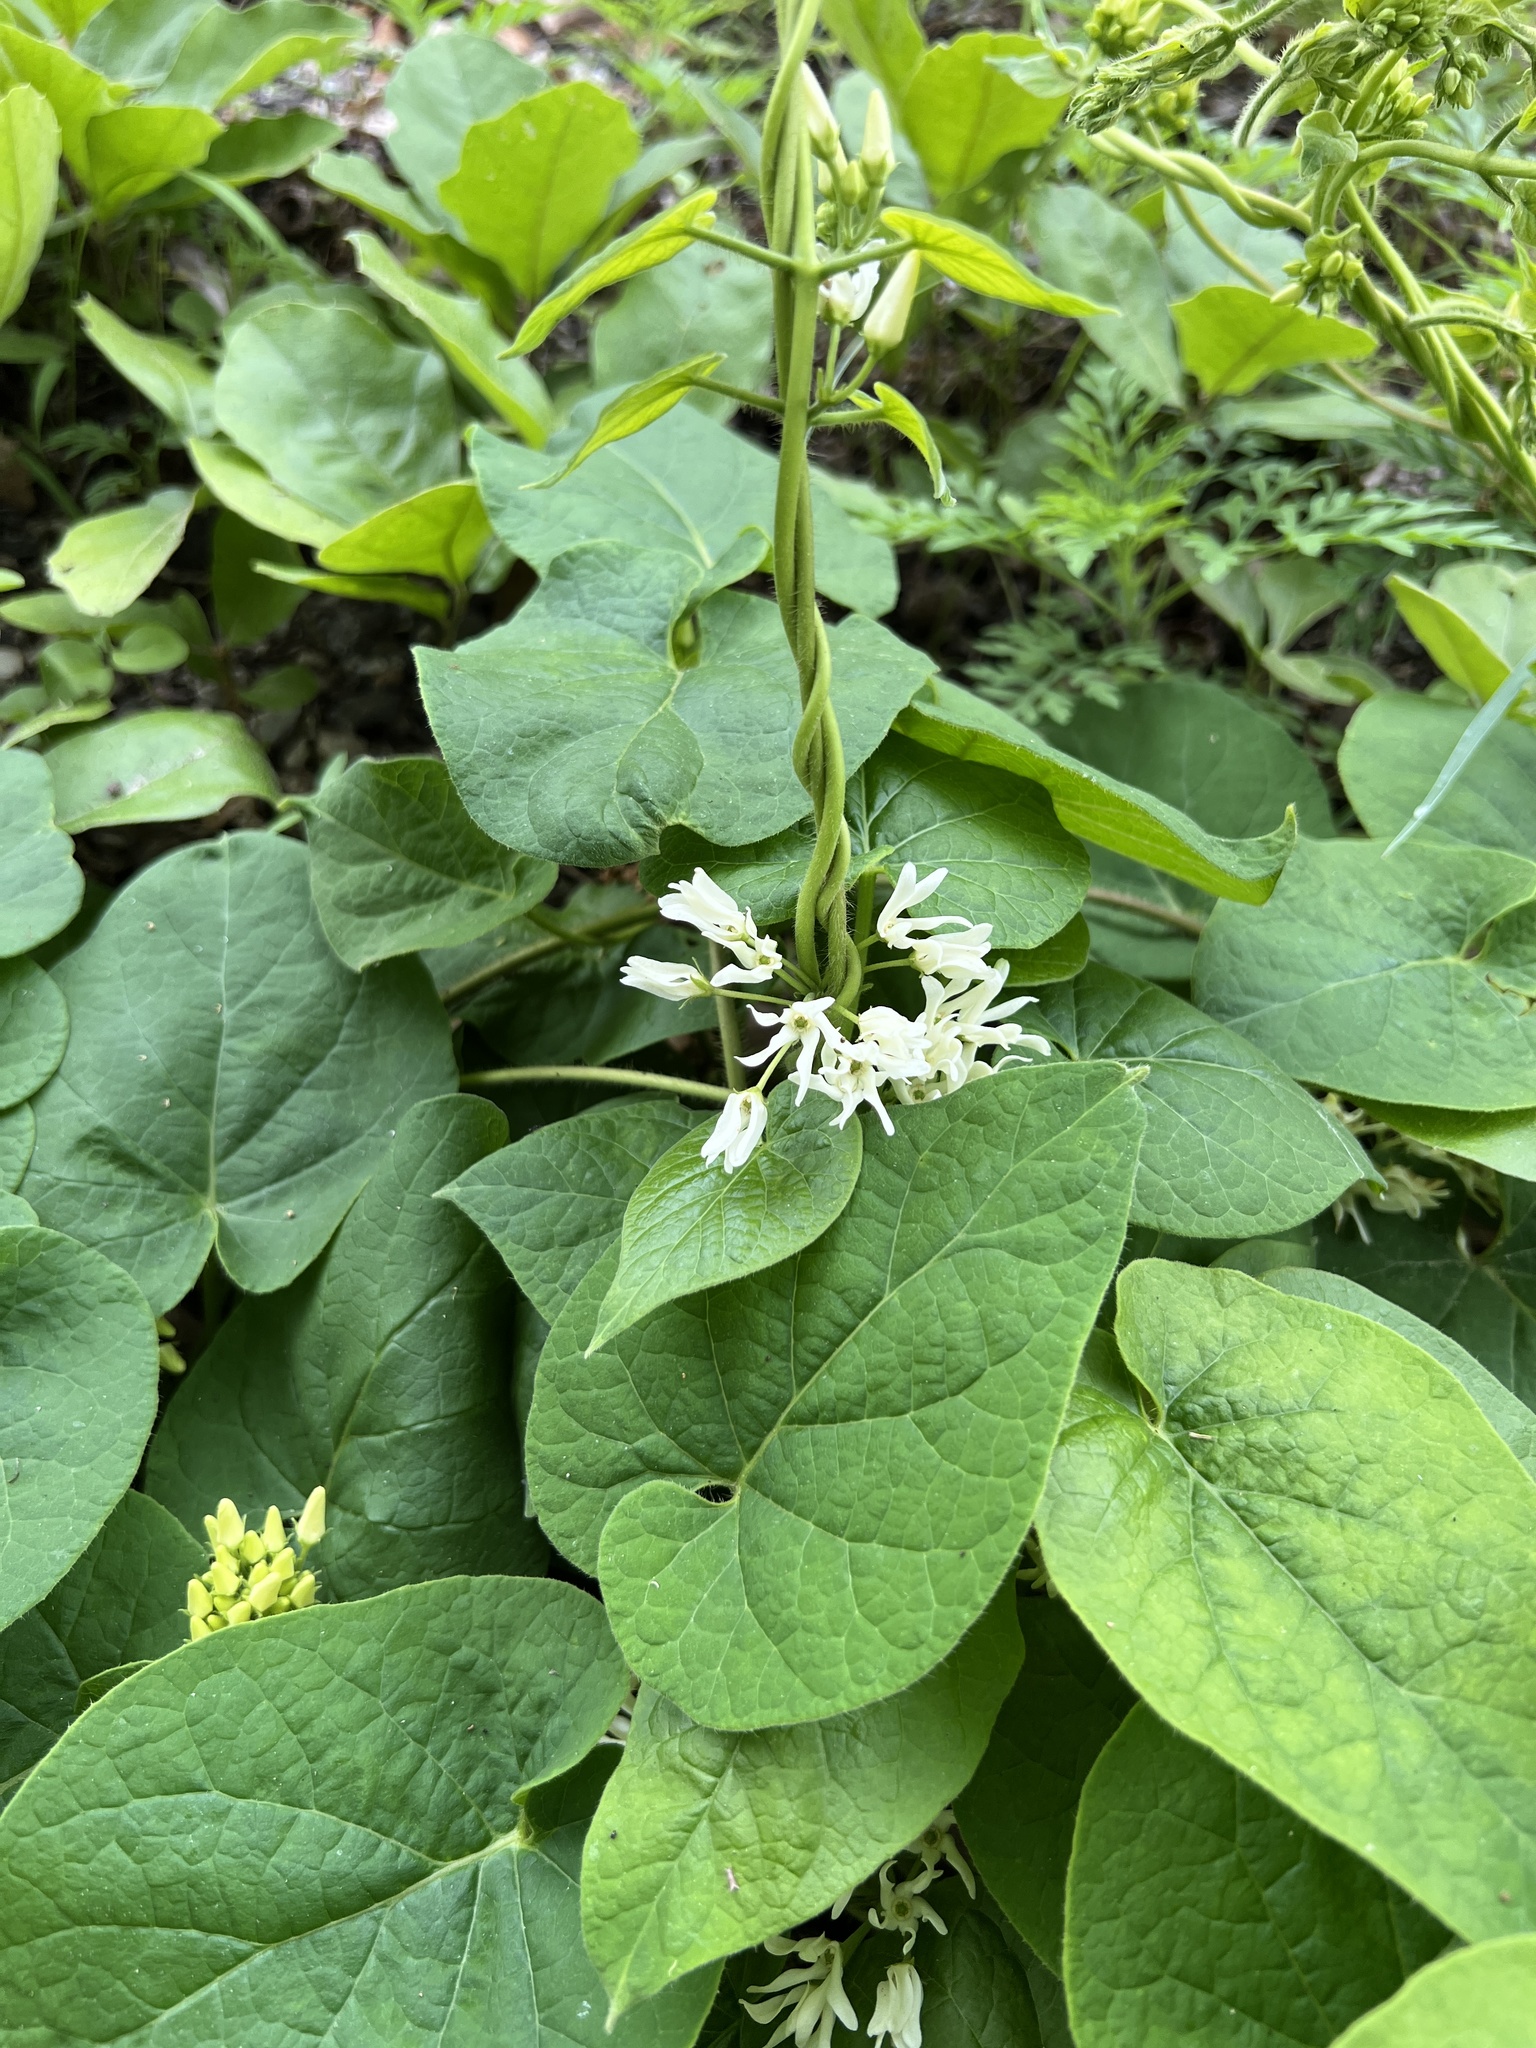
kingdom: Plantae
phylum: Tracheophyta
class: Magnoliopsida
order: Gentianales
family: Apocynaceae
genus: Matelea
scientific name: Matelea baldwyniana
